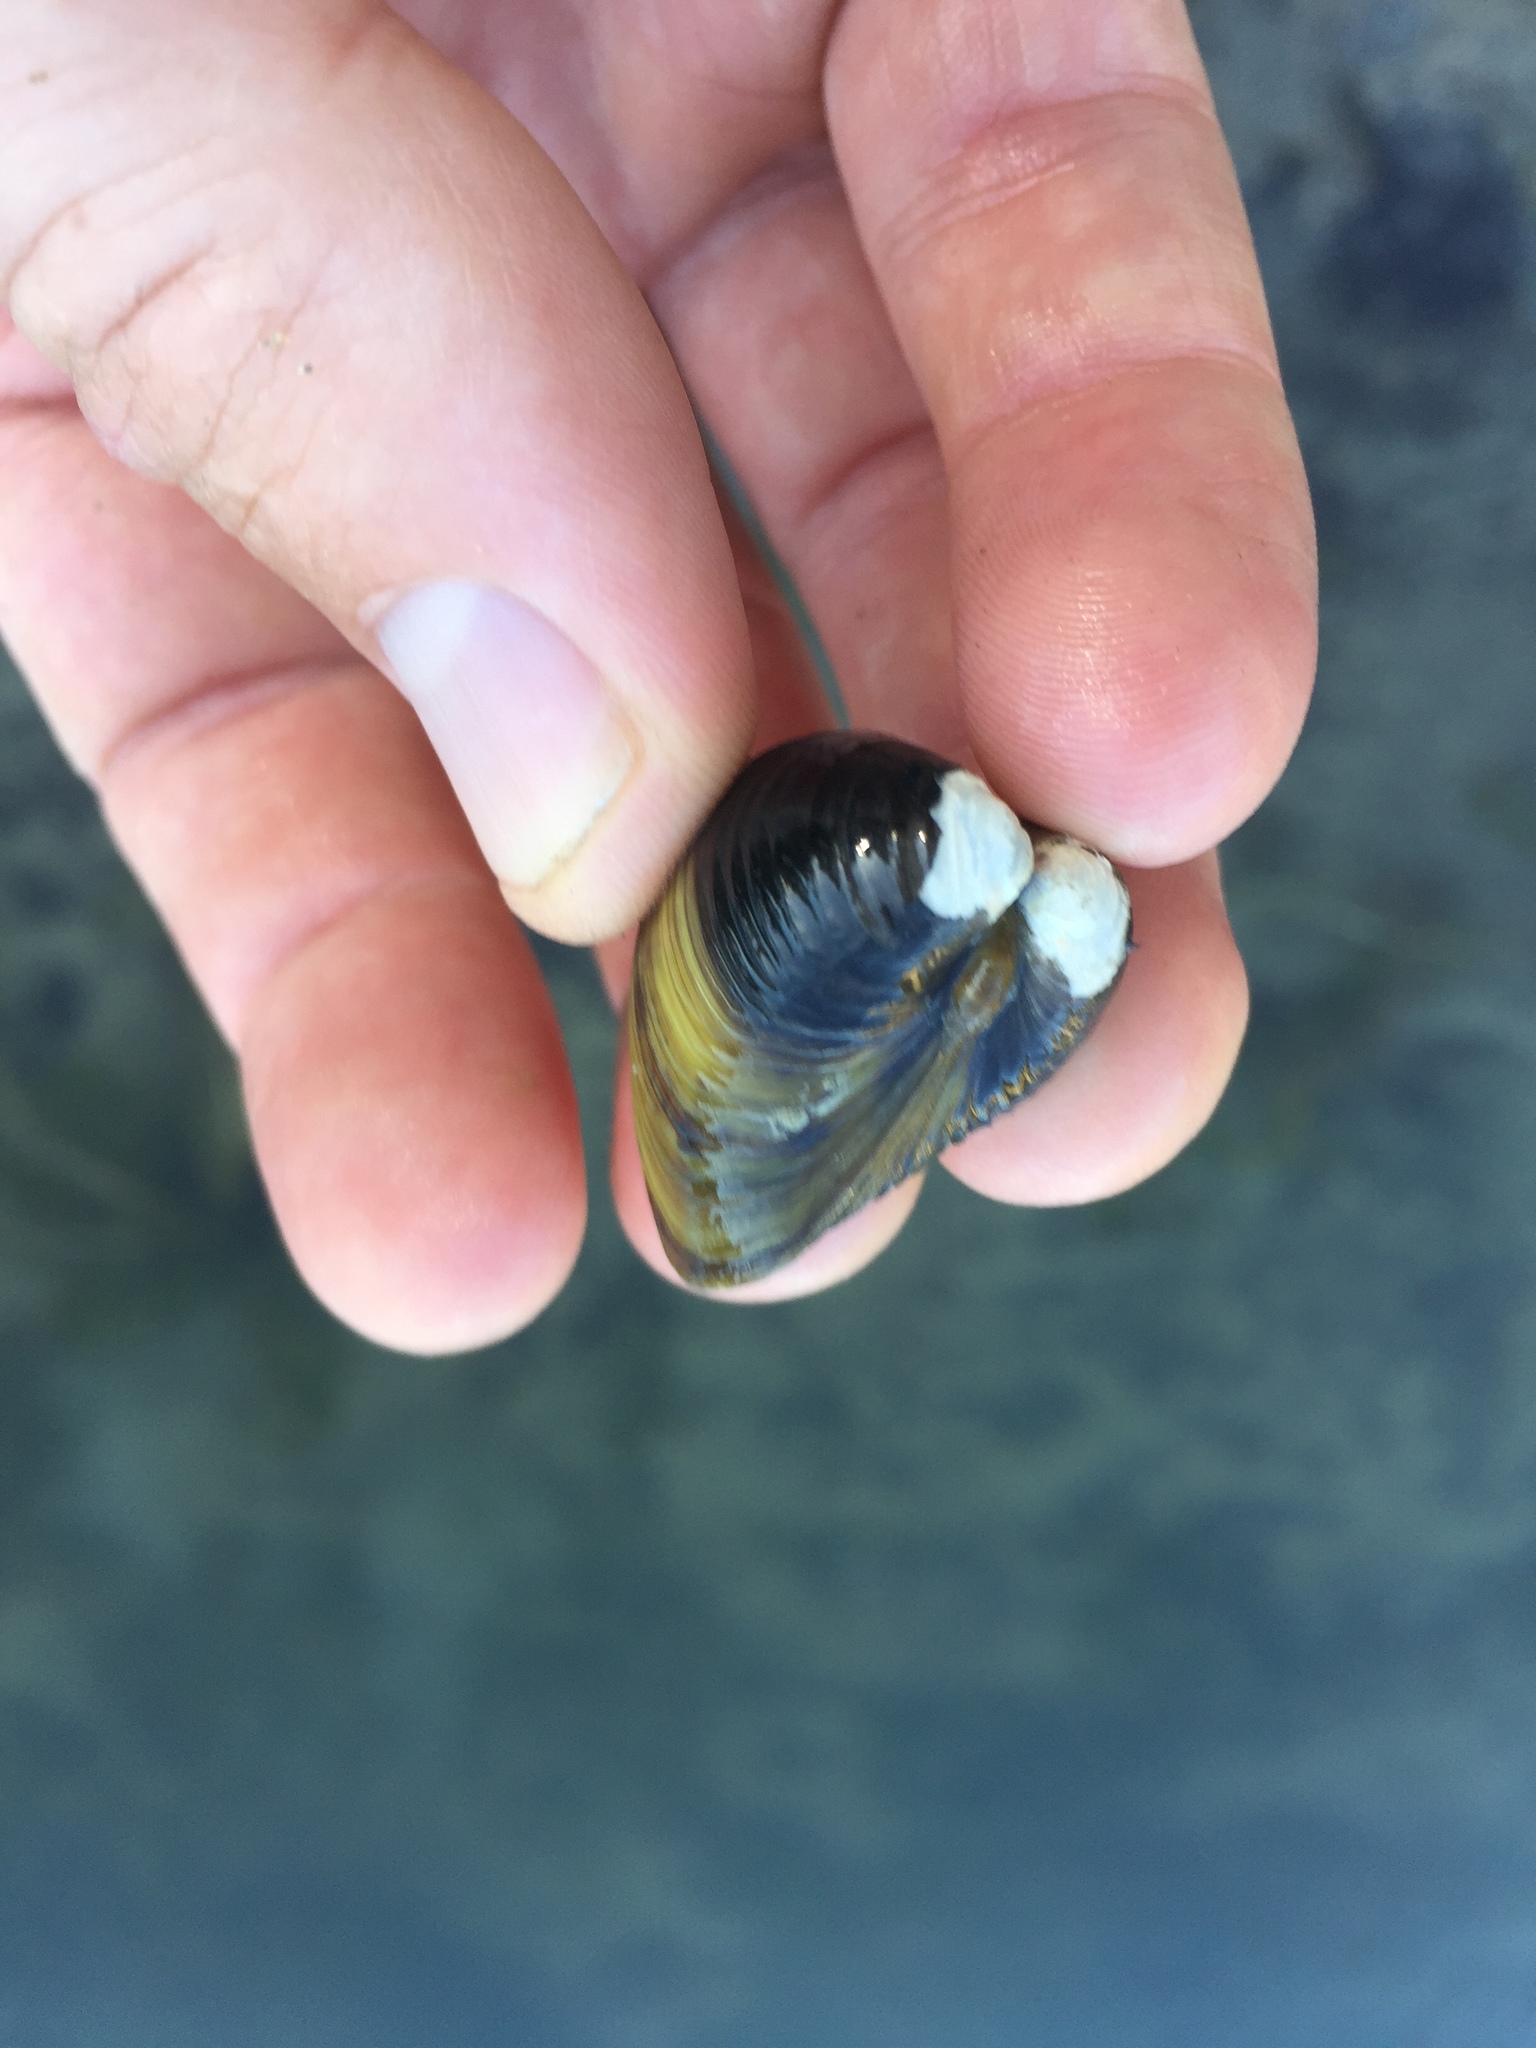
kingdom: Animalia
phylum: Mollusca
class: Bivalvia
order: Venerida
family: Cyrenidae
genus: Corbicula
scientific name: Corbicula fluminea
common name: Asian clam
